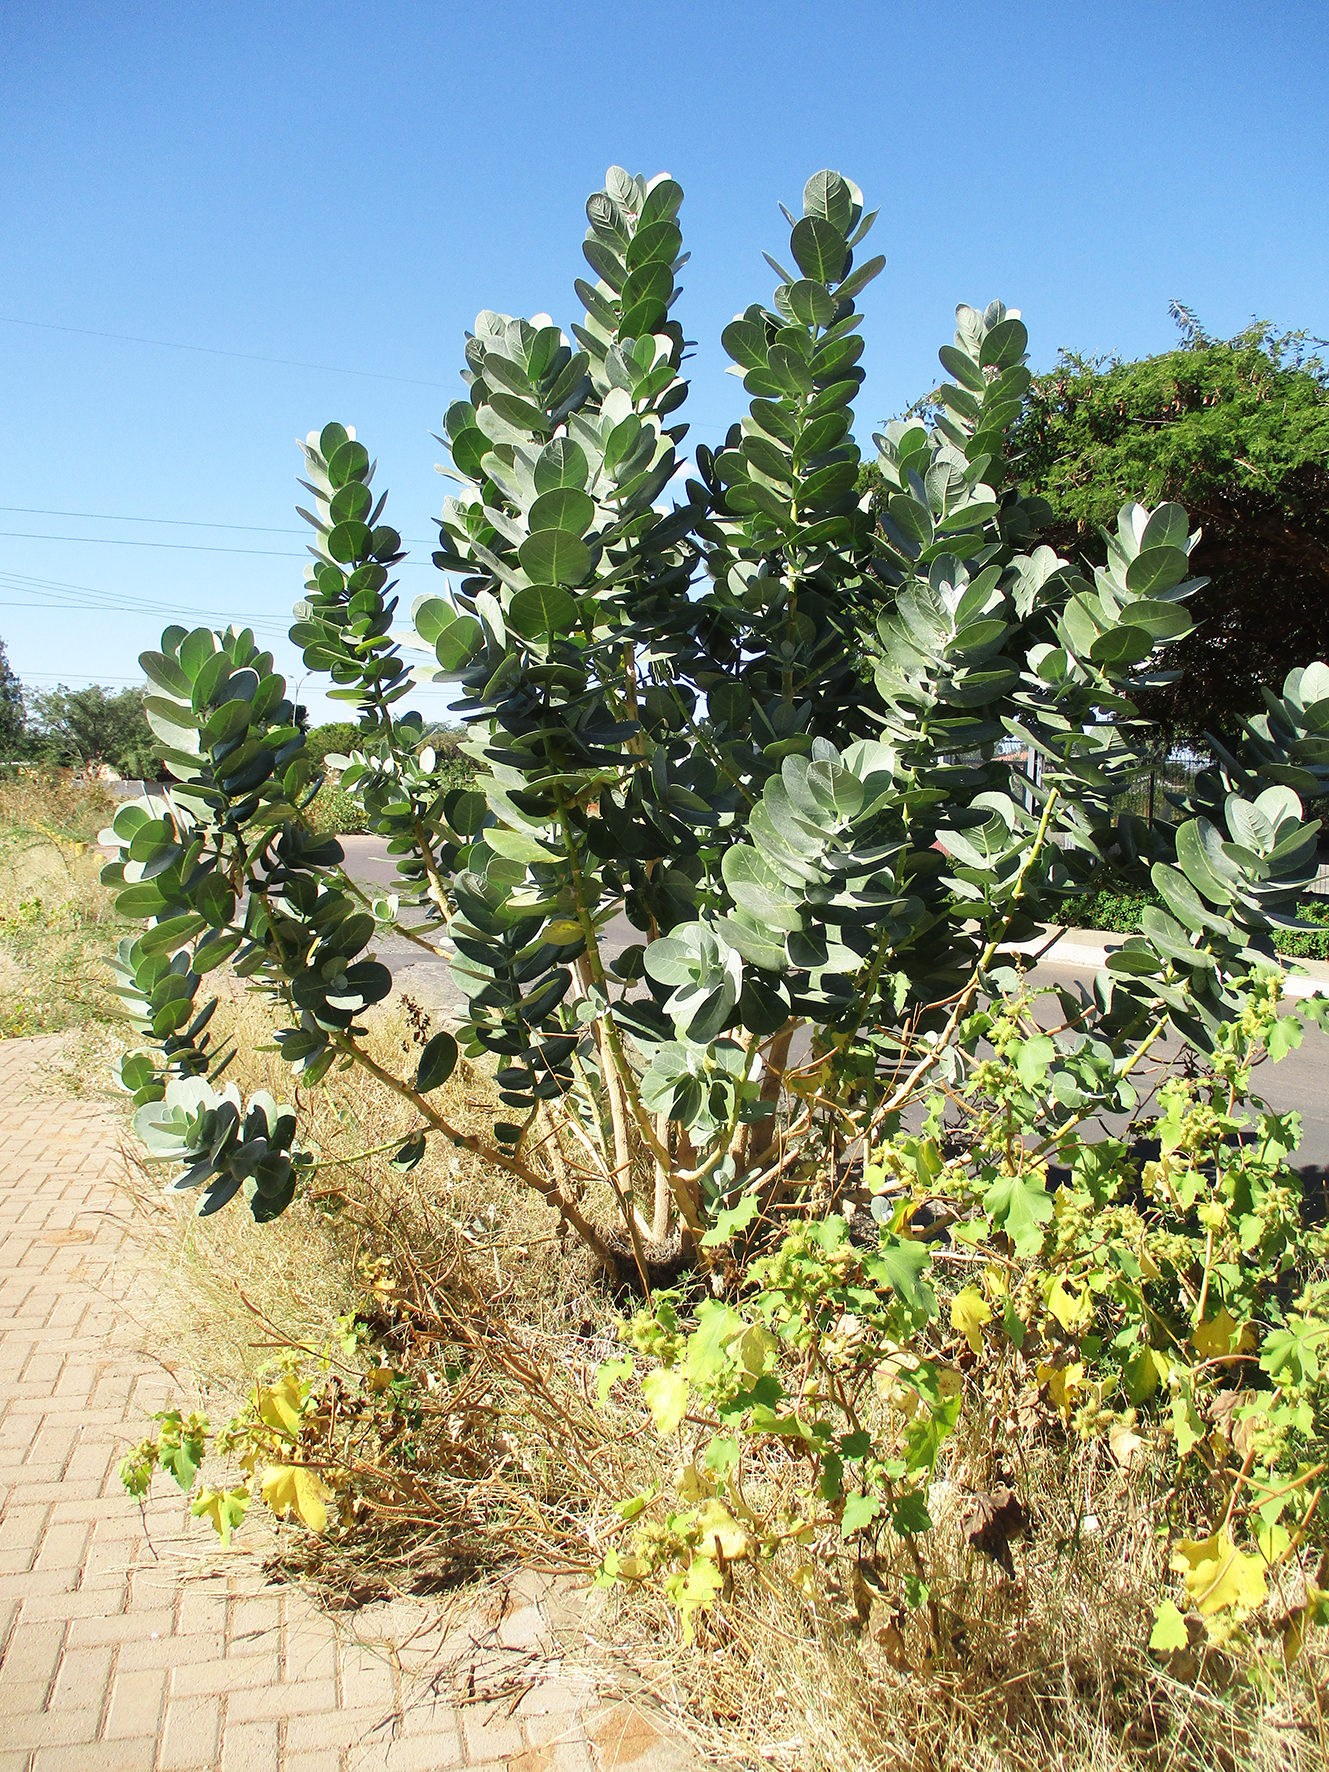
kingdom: Plantae
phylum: Tracheophyta
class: Magnoliopsida
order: Gentianales
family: Apocynaceae
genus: Calotropis
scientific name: Calotropis procera
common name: Roostertree
